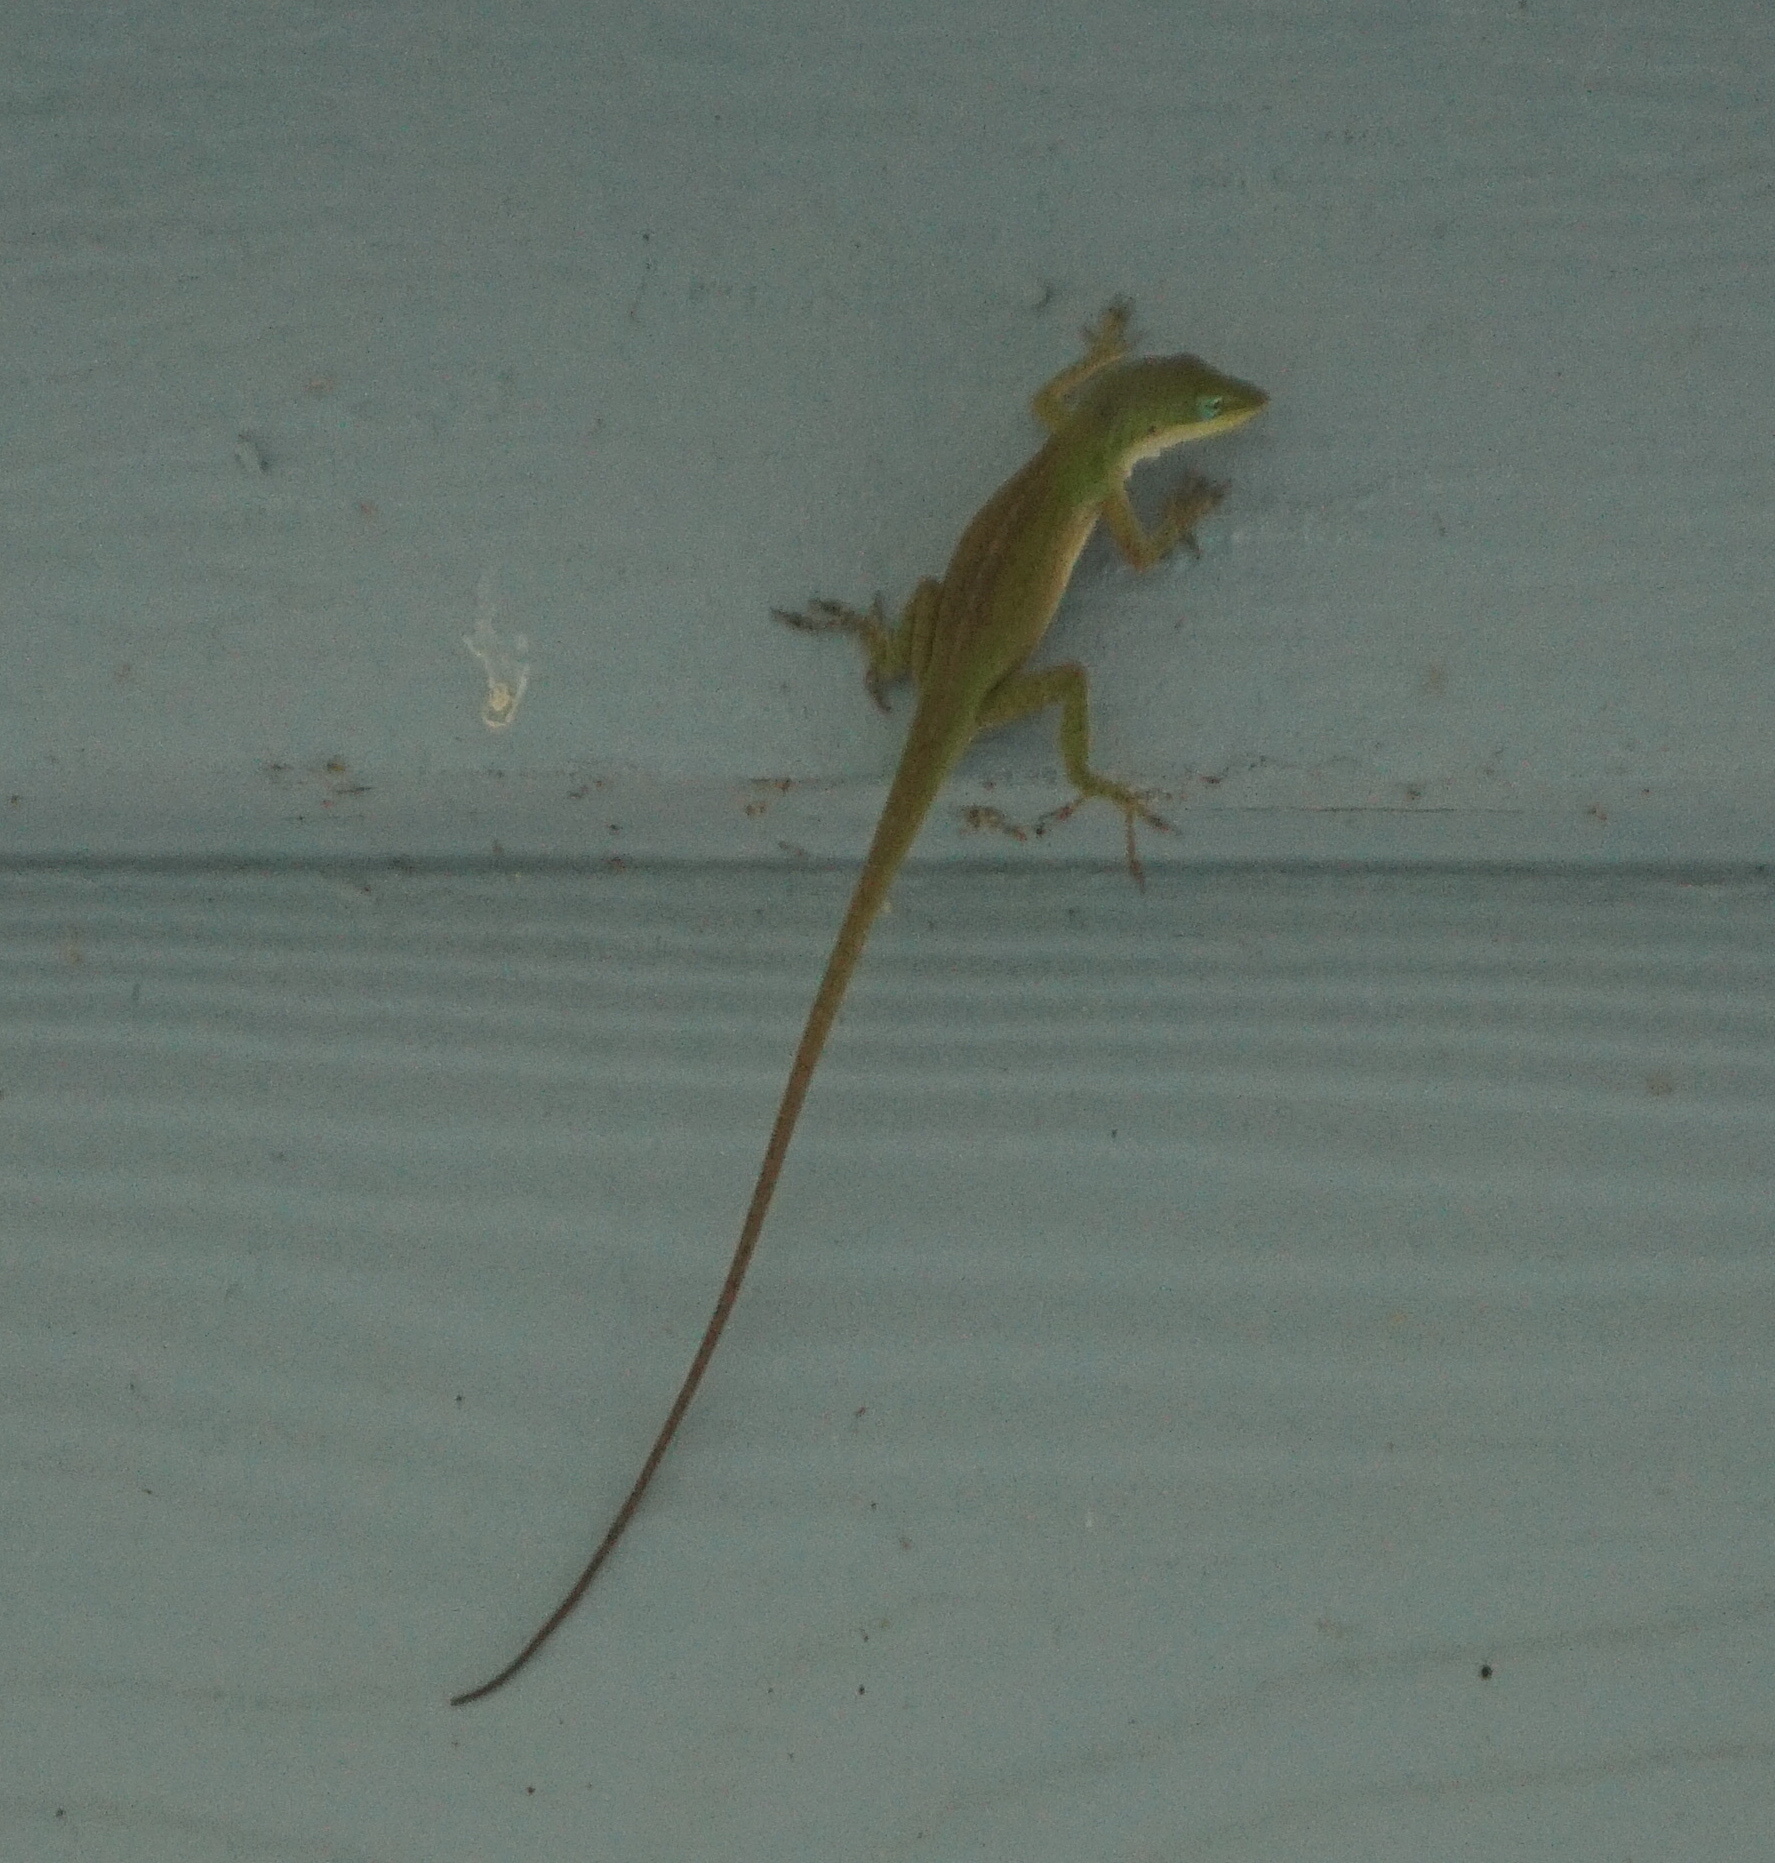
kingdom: Animalia
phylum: Chordata
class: Squamata
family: Dactyloidae
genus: Anolis
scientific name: Anolis carolinensis
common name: Green anole
